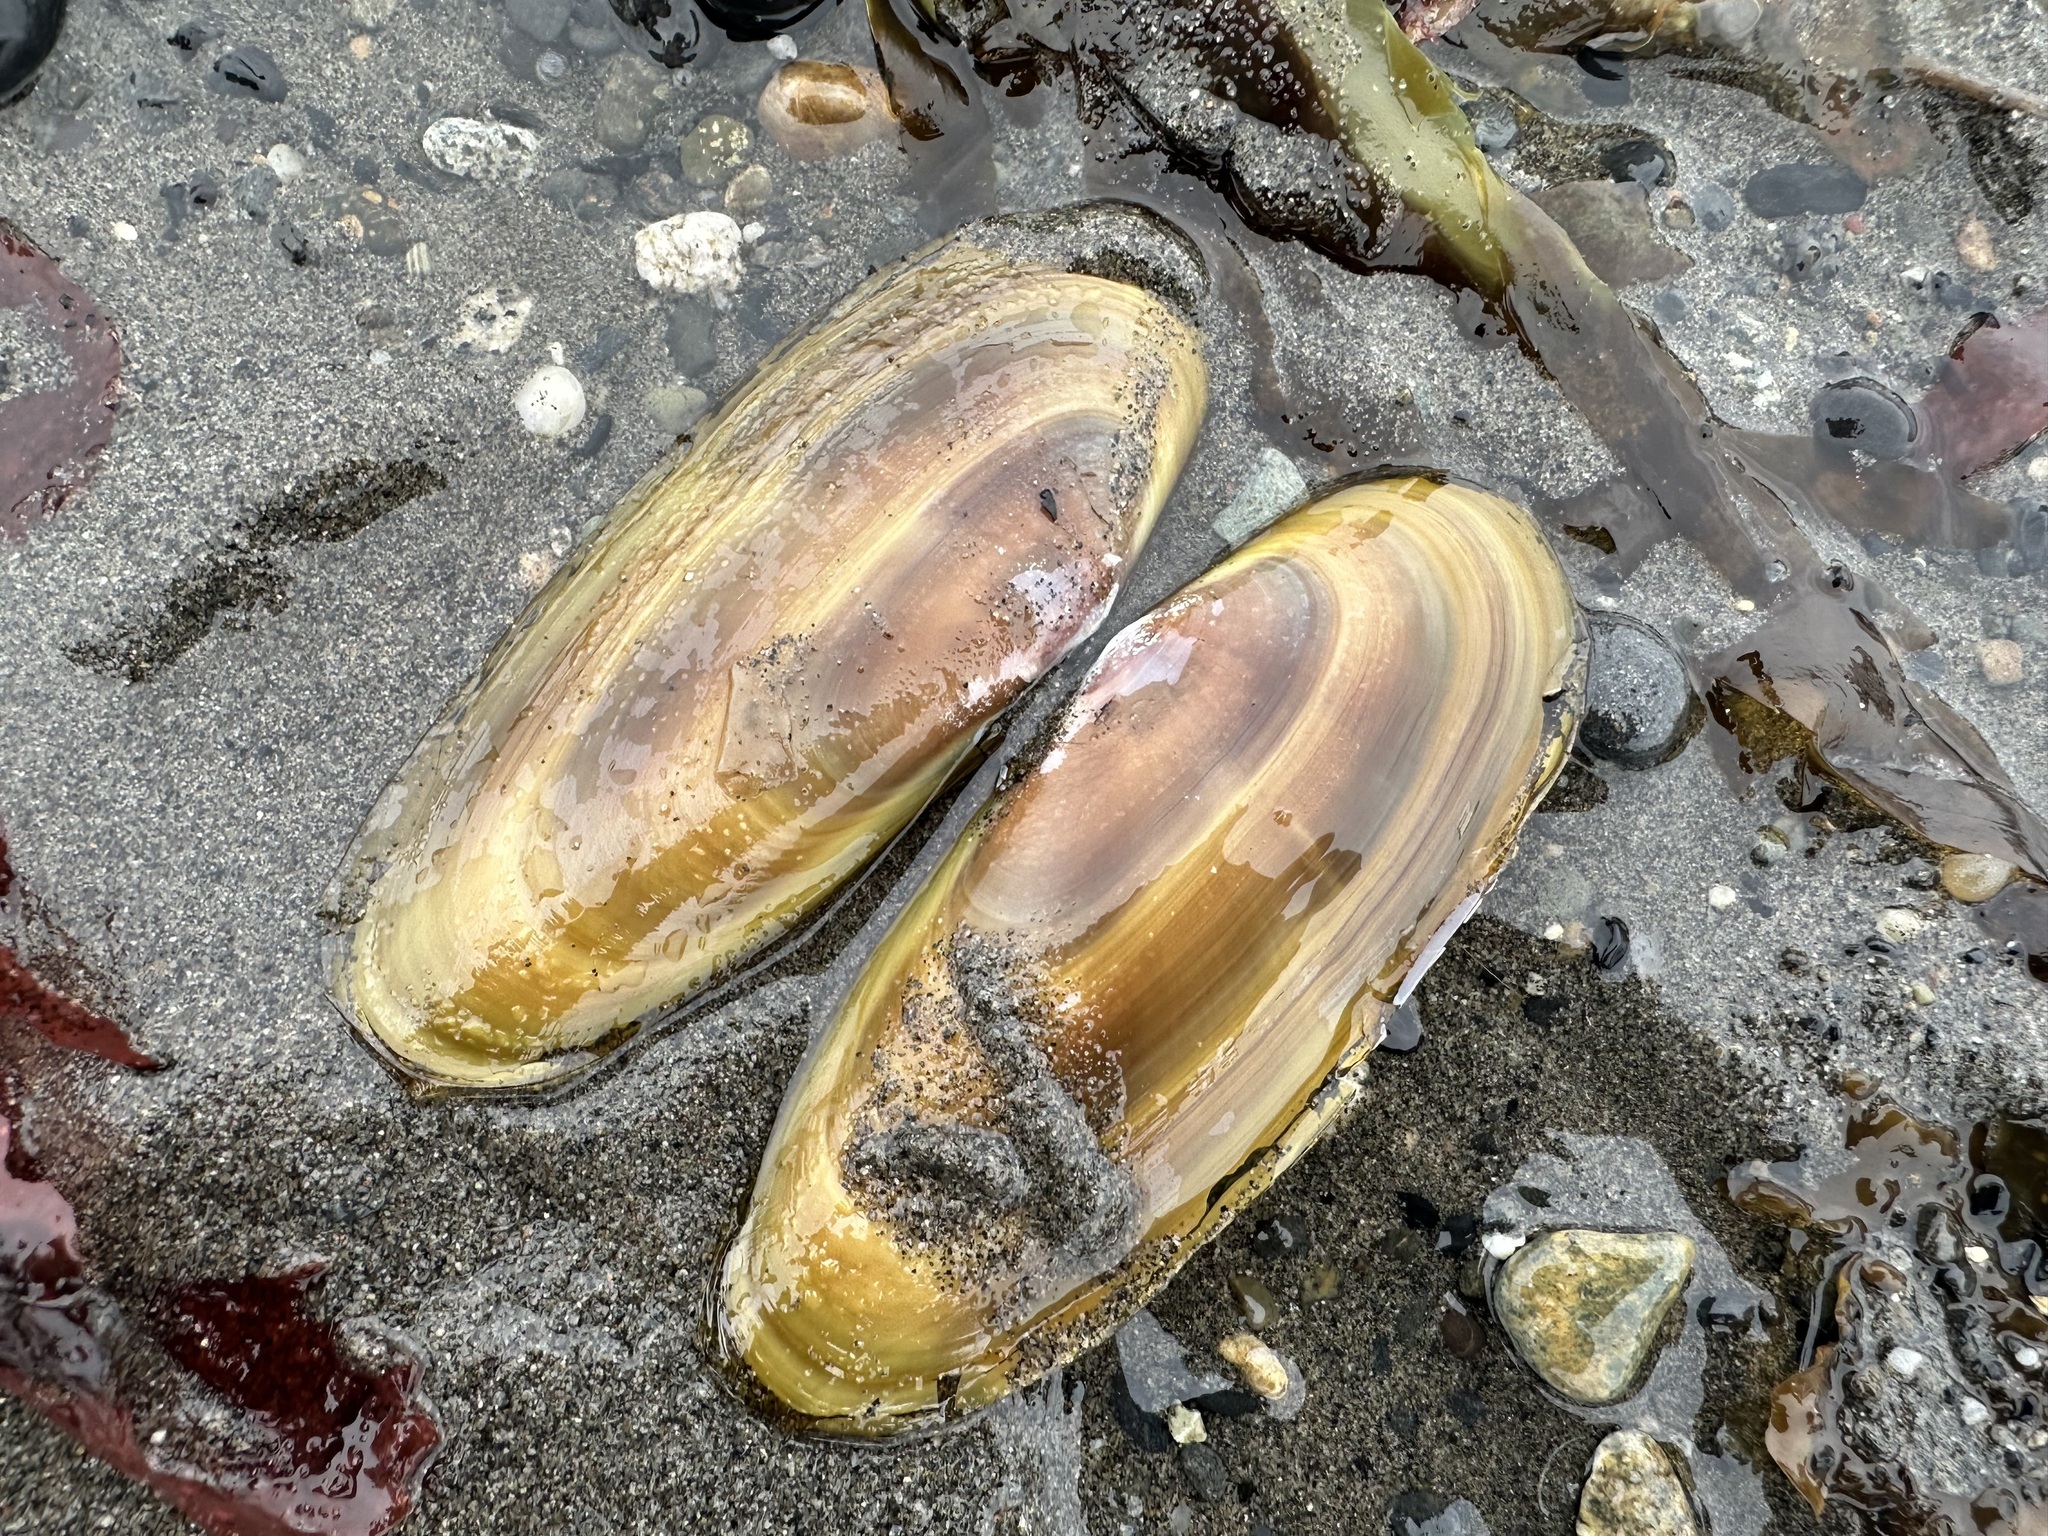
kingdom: Animalia
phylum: Mollusca
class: Bivalvia
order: Adapedonta
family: Pharidae
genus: Siliqua
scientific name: Siliqua patula
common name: Pacific razor clam
